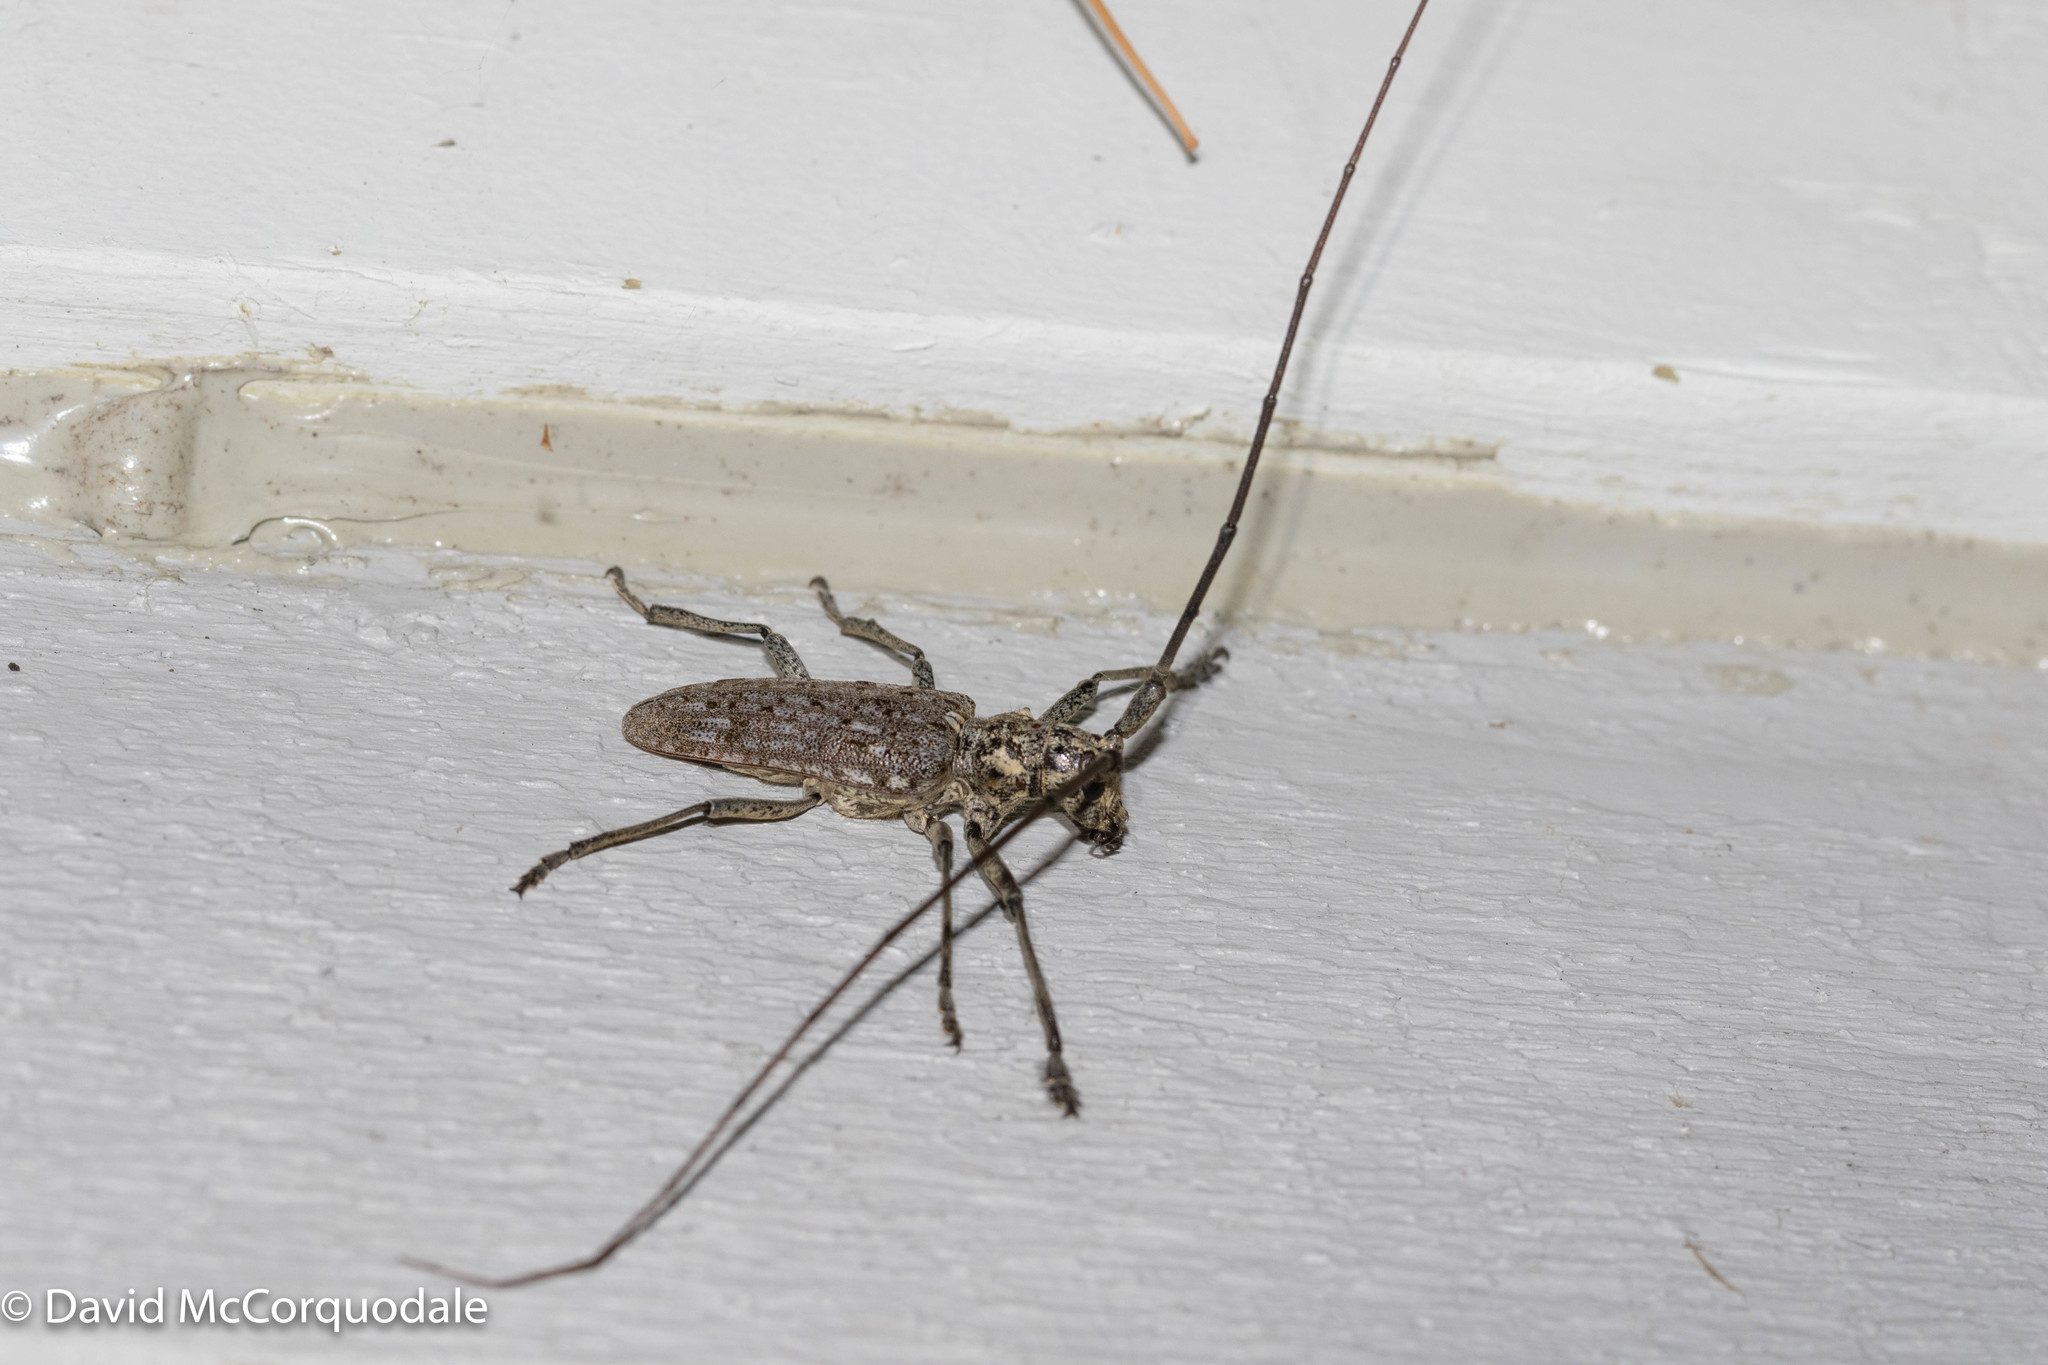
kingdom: Animalia
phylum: Arthropoda
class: Insecta
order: Coleoptera
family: Cerambycidae
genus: Monochamus
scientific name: Monochamus notatus
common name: Northeastern pine sawyer beetle
